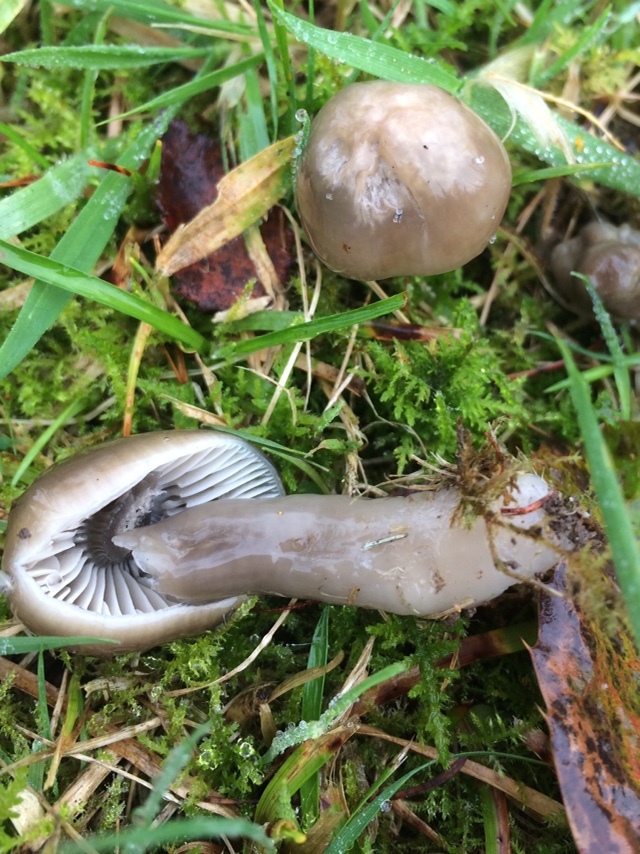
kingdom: Fungi
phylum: Basidiomycota
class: Agaricomycetes
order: Agaricales
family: Hygrophoraceae
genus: Gliophorus
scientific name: Gliophorus irrigatus
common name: Slimy waxcap
